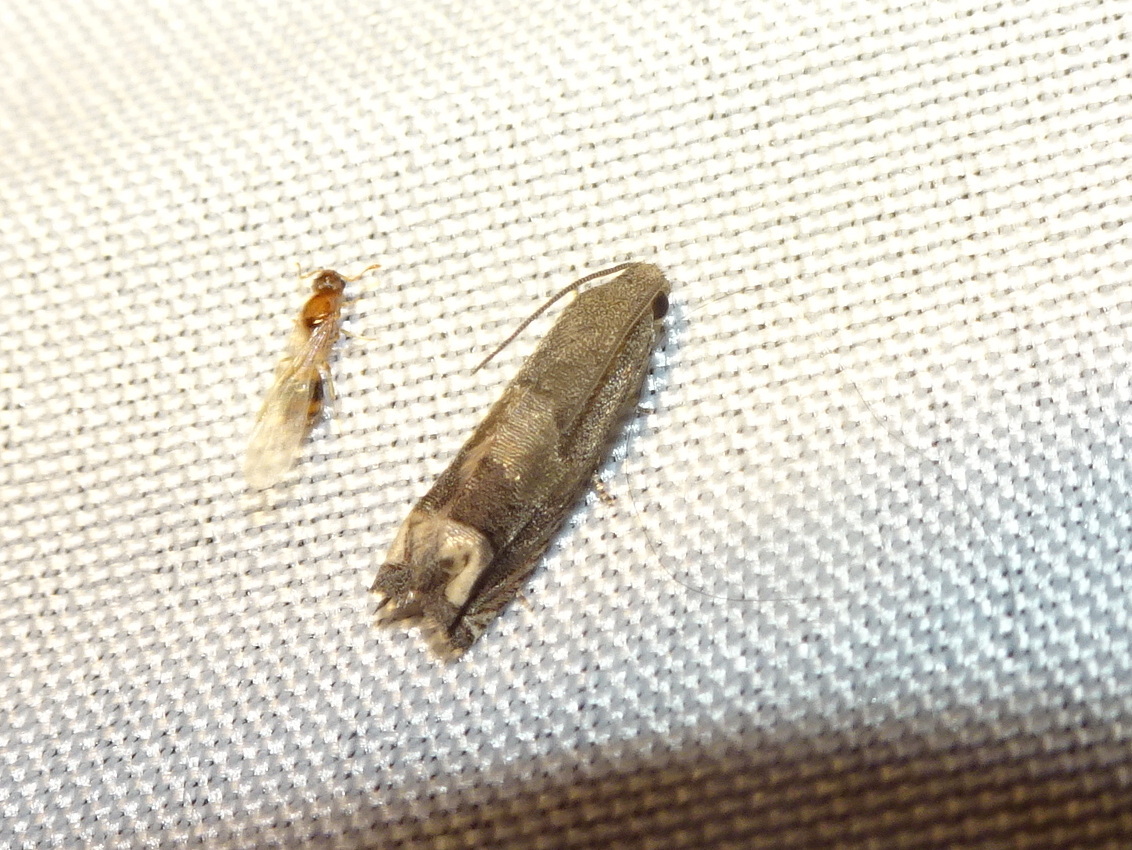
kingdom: Animalia
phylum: Arthropoda
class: Insecta
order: Lepidoptera
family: Tortricidae
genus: Epiblema
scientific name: Epiblema strenuana
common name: Ragweed borer moth
